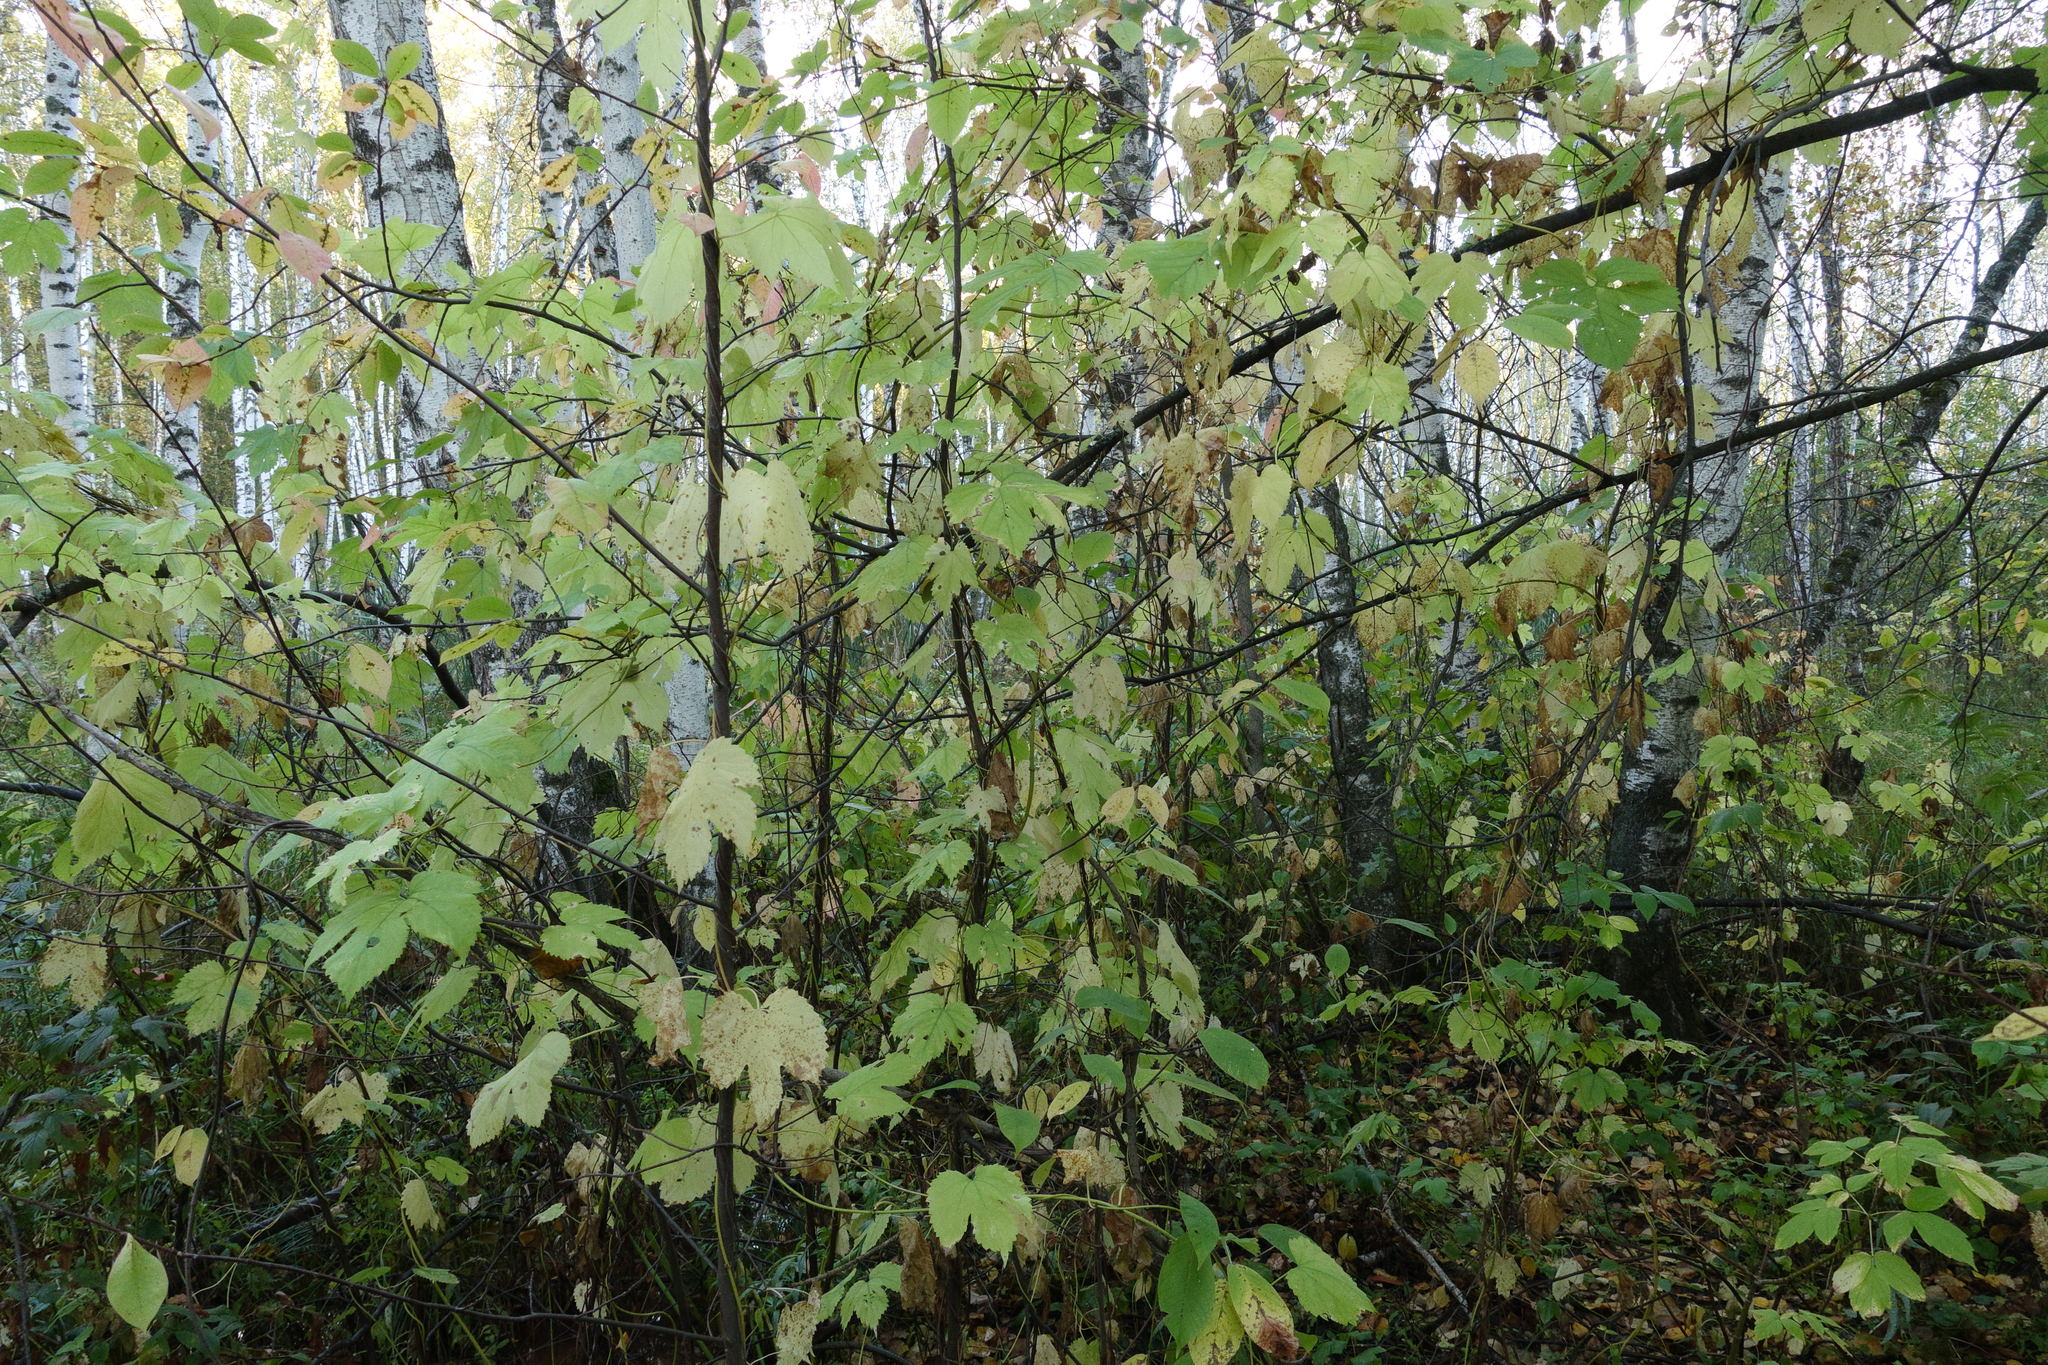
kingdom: Plantae
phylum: Tracheophyta
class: Magnoliopsida
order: Rosales
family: Cannabaceae
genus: Humulus
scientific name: Humulus lupulus
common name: Hop
